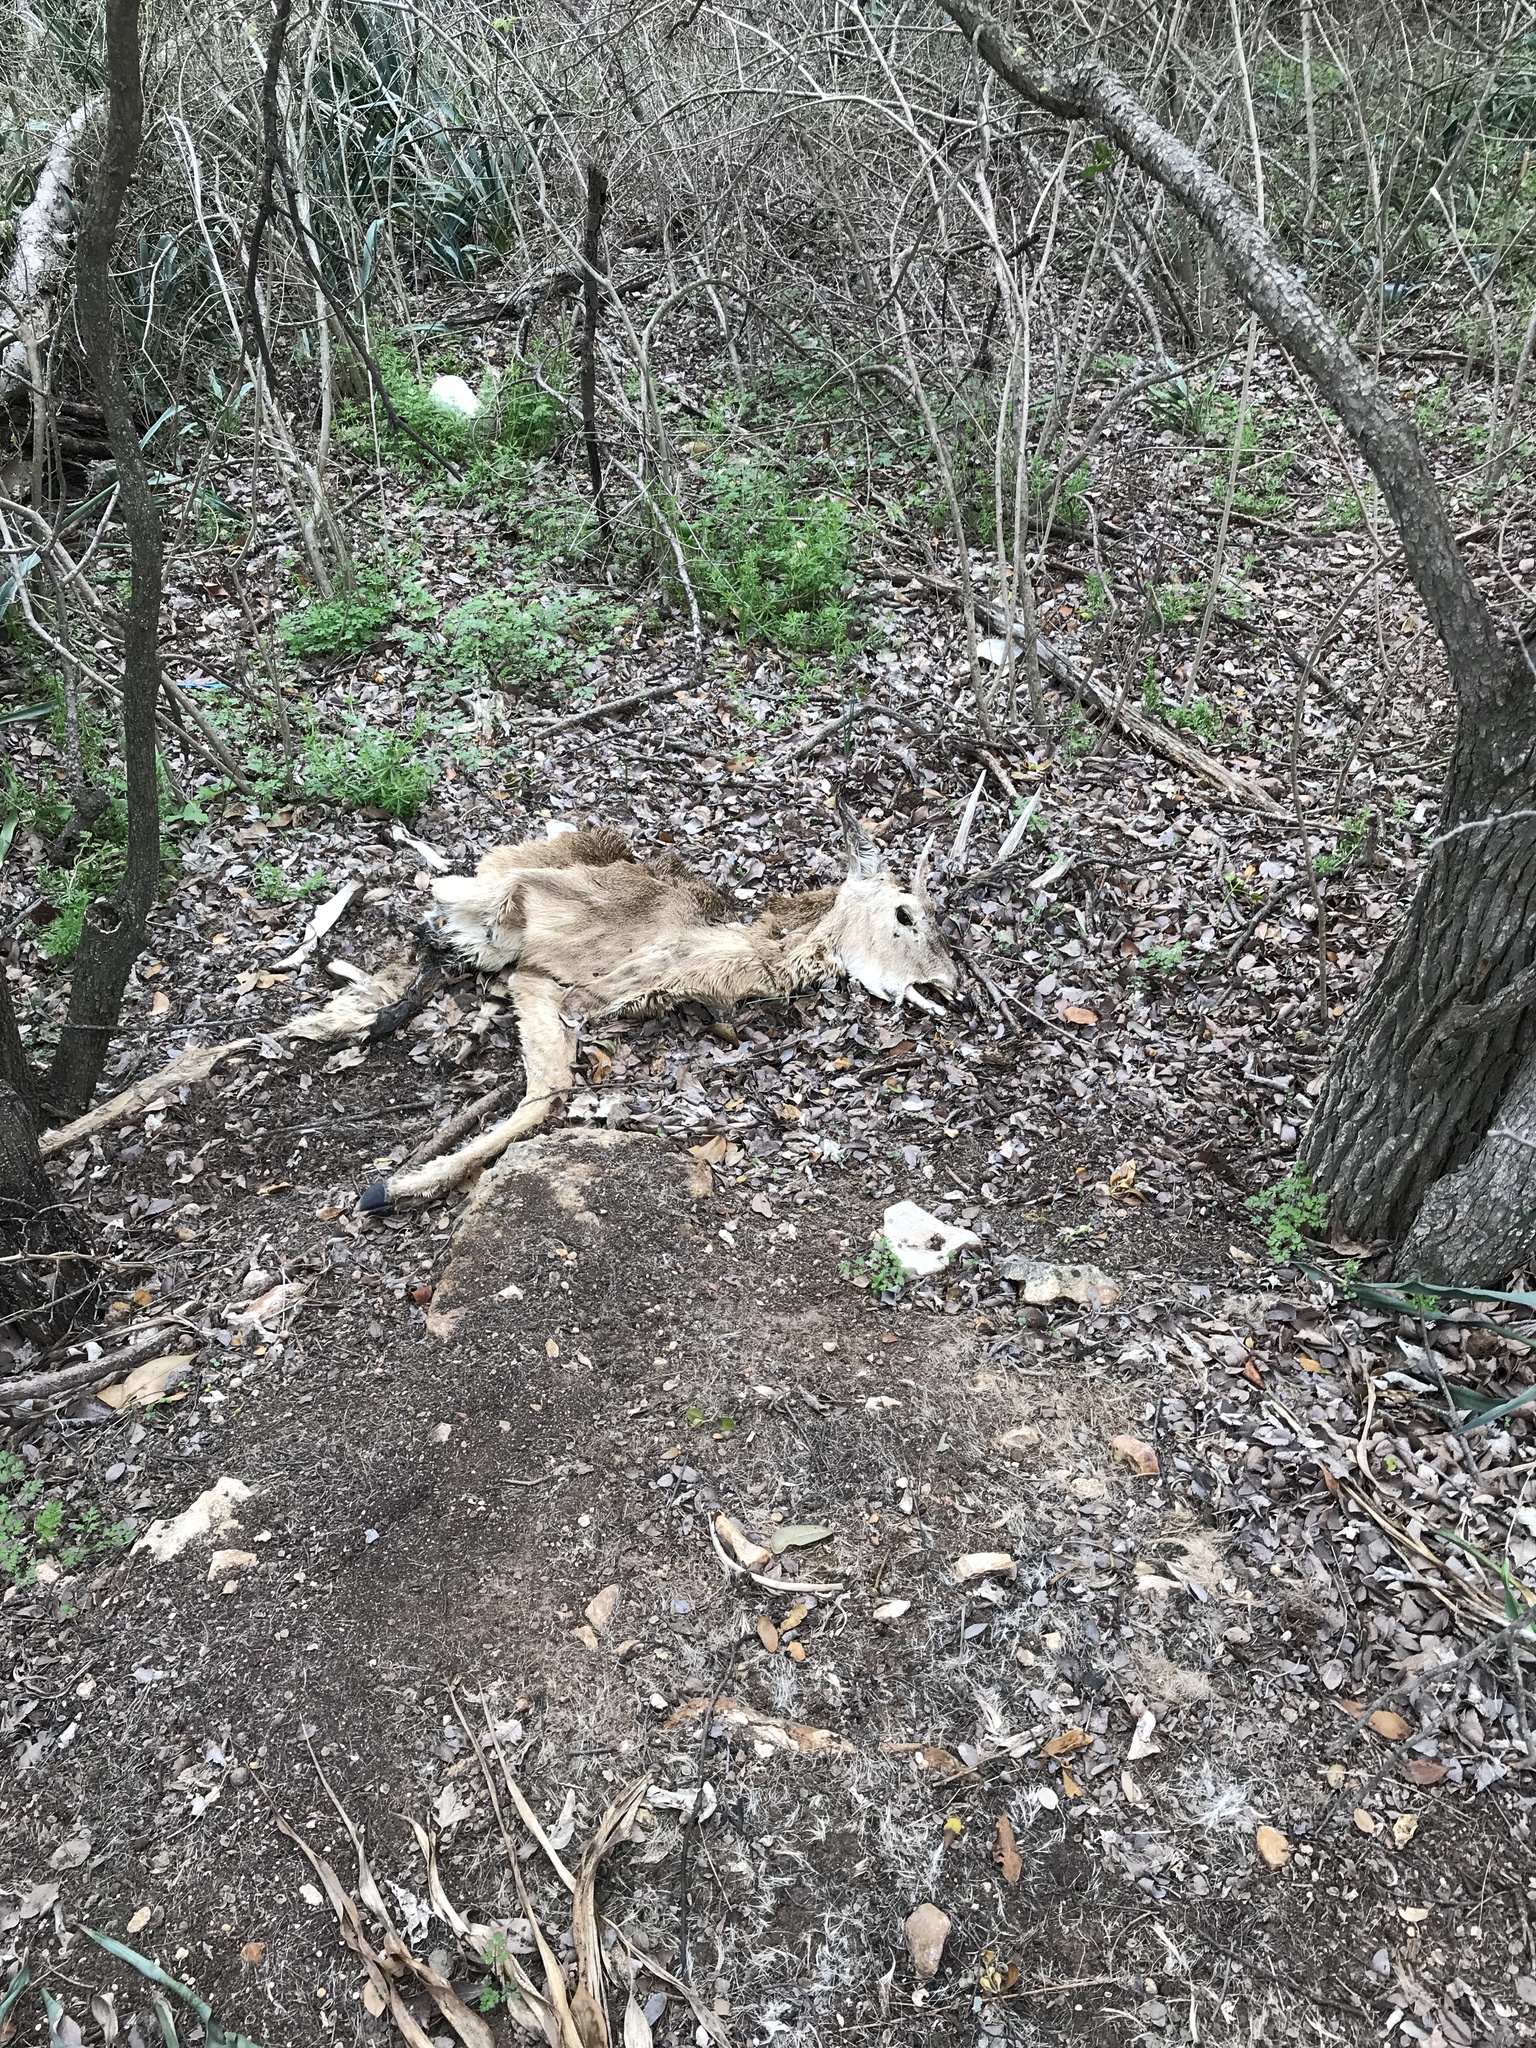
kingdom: Animalia
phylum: Chordata
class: Mammalia
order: Artiodactyla
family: Cervidae
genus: Odocoileus
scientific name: Odocoileus virginianus
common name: White-tailed deer
